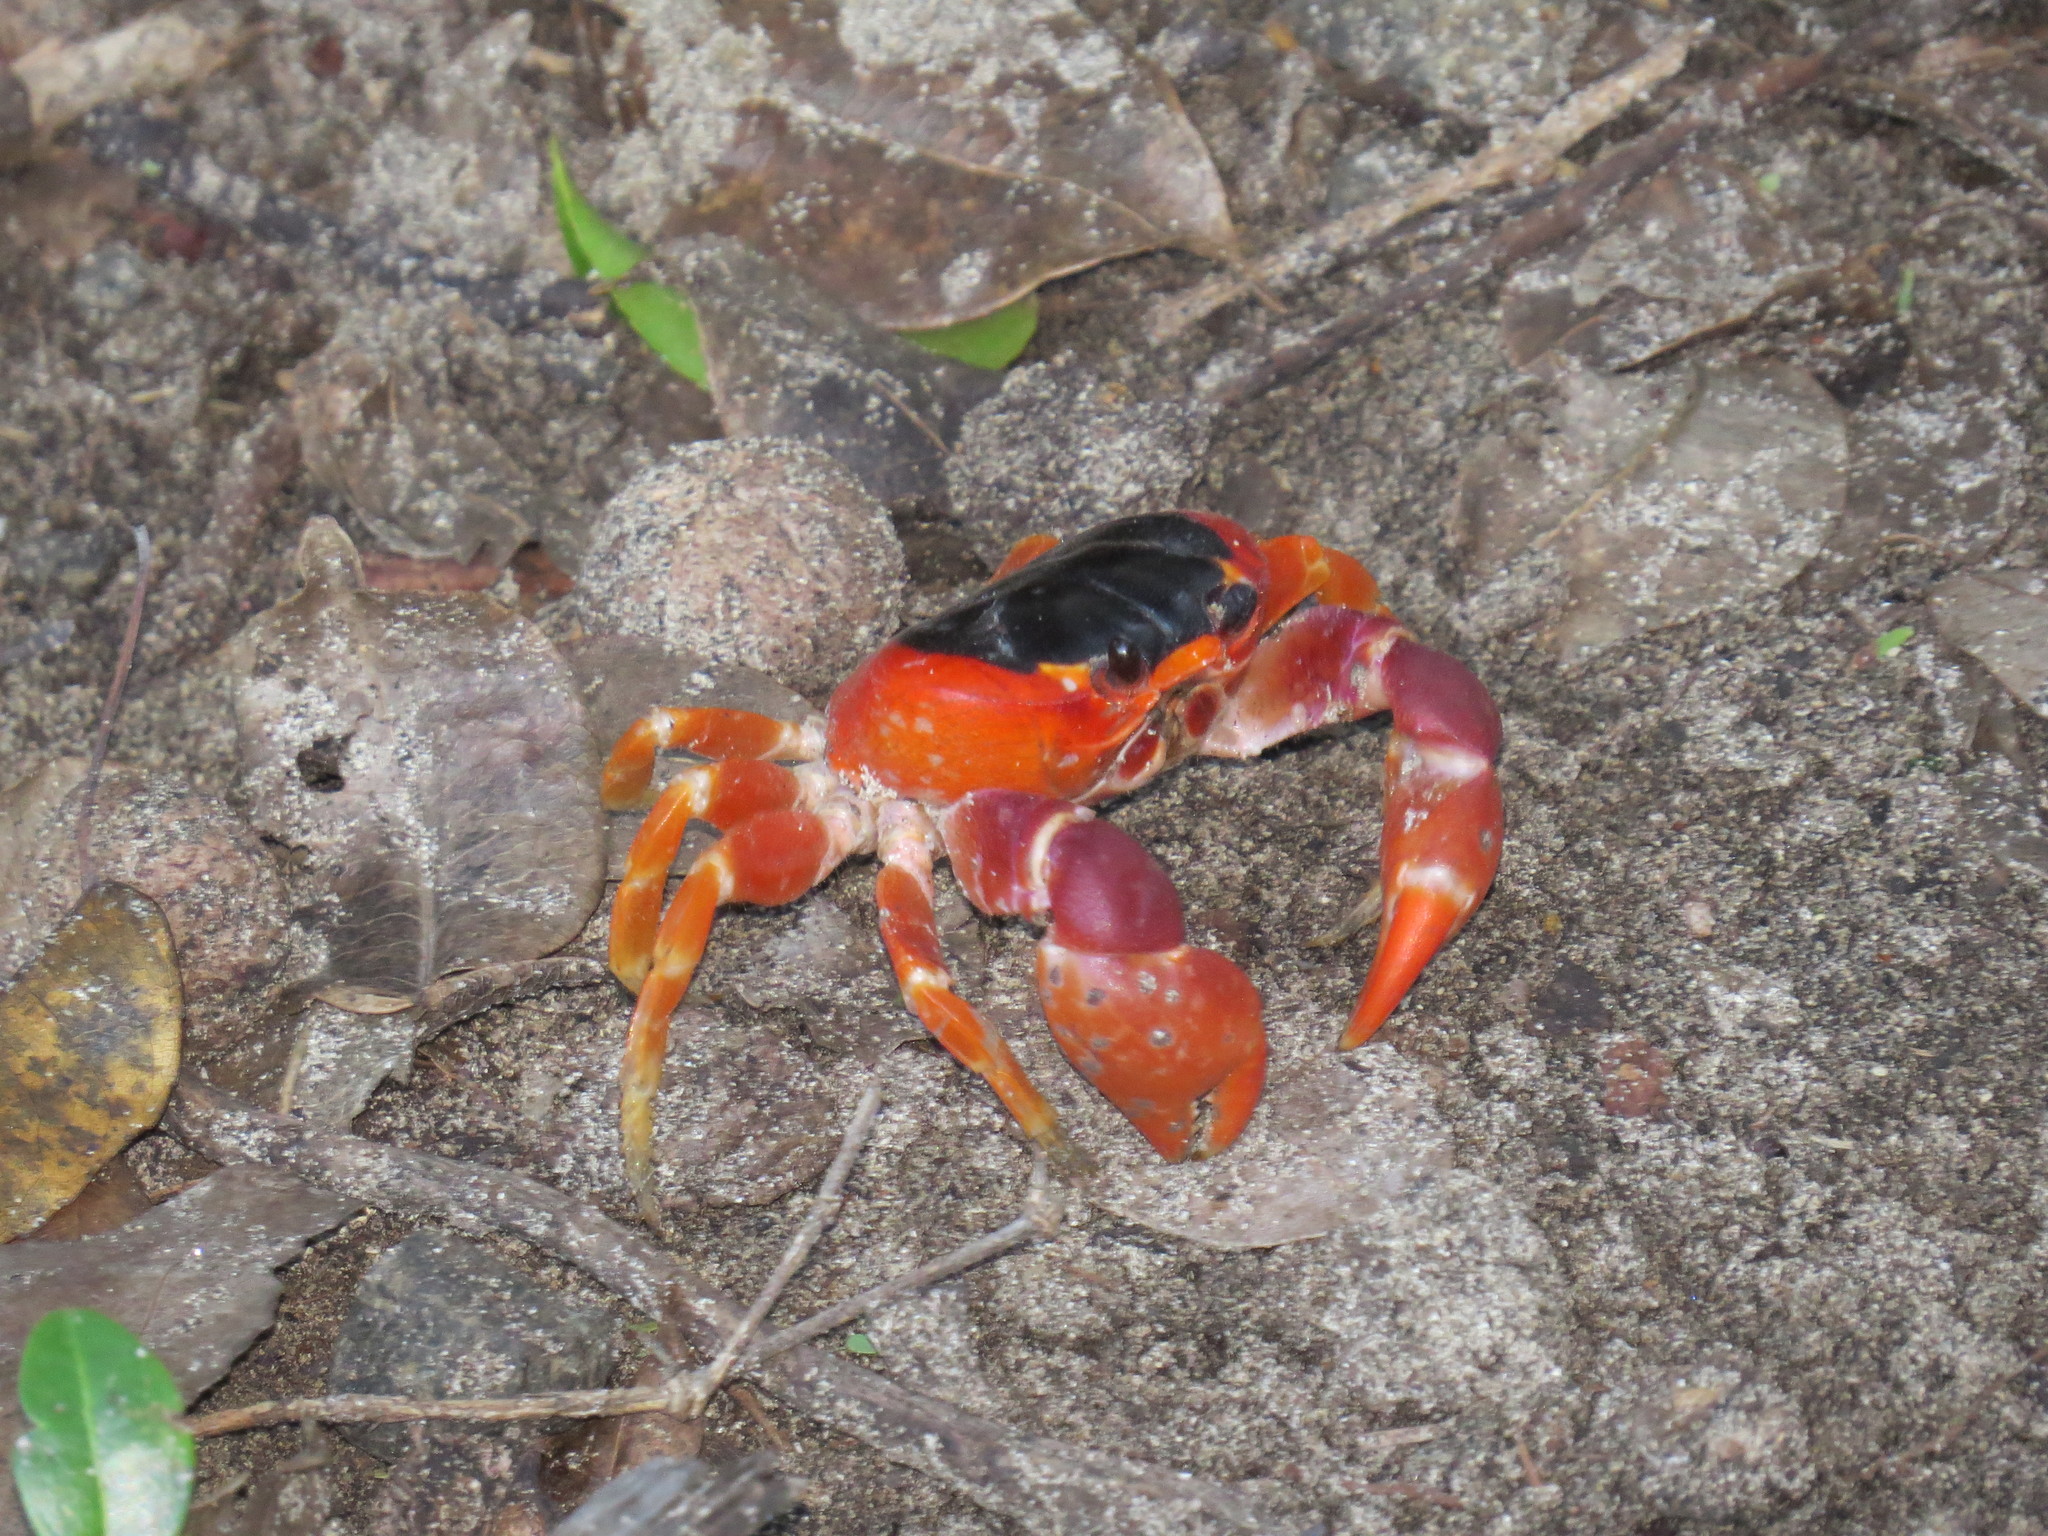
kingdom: Animalia
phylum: Arthropoda
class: Malacostraca
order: Decapoda
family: Gecarcinidae
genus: Gecarcinus
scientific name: Gecarcinus lateralis
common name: Bermuda land crab
